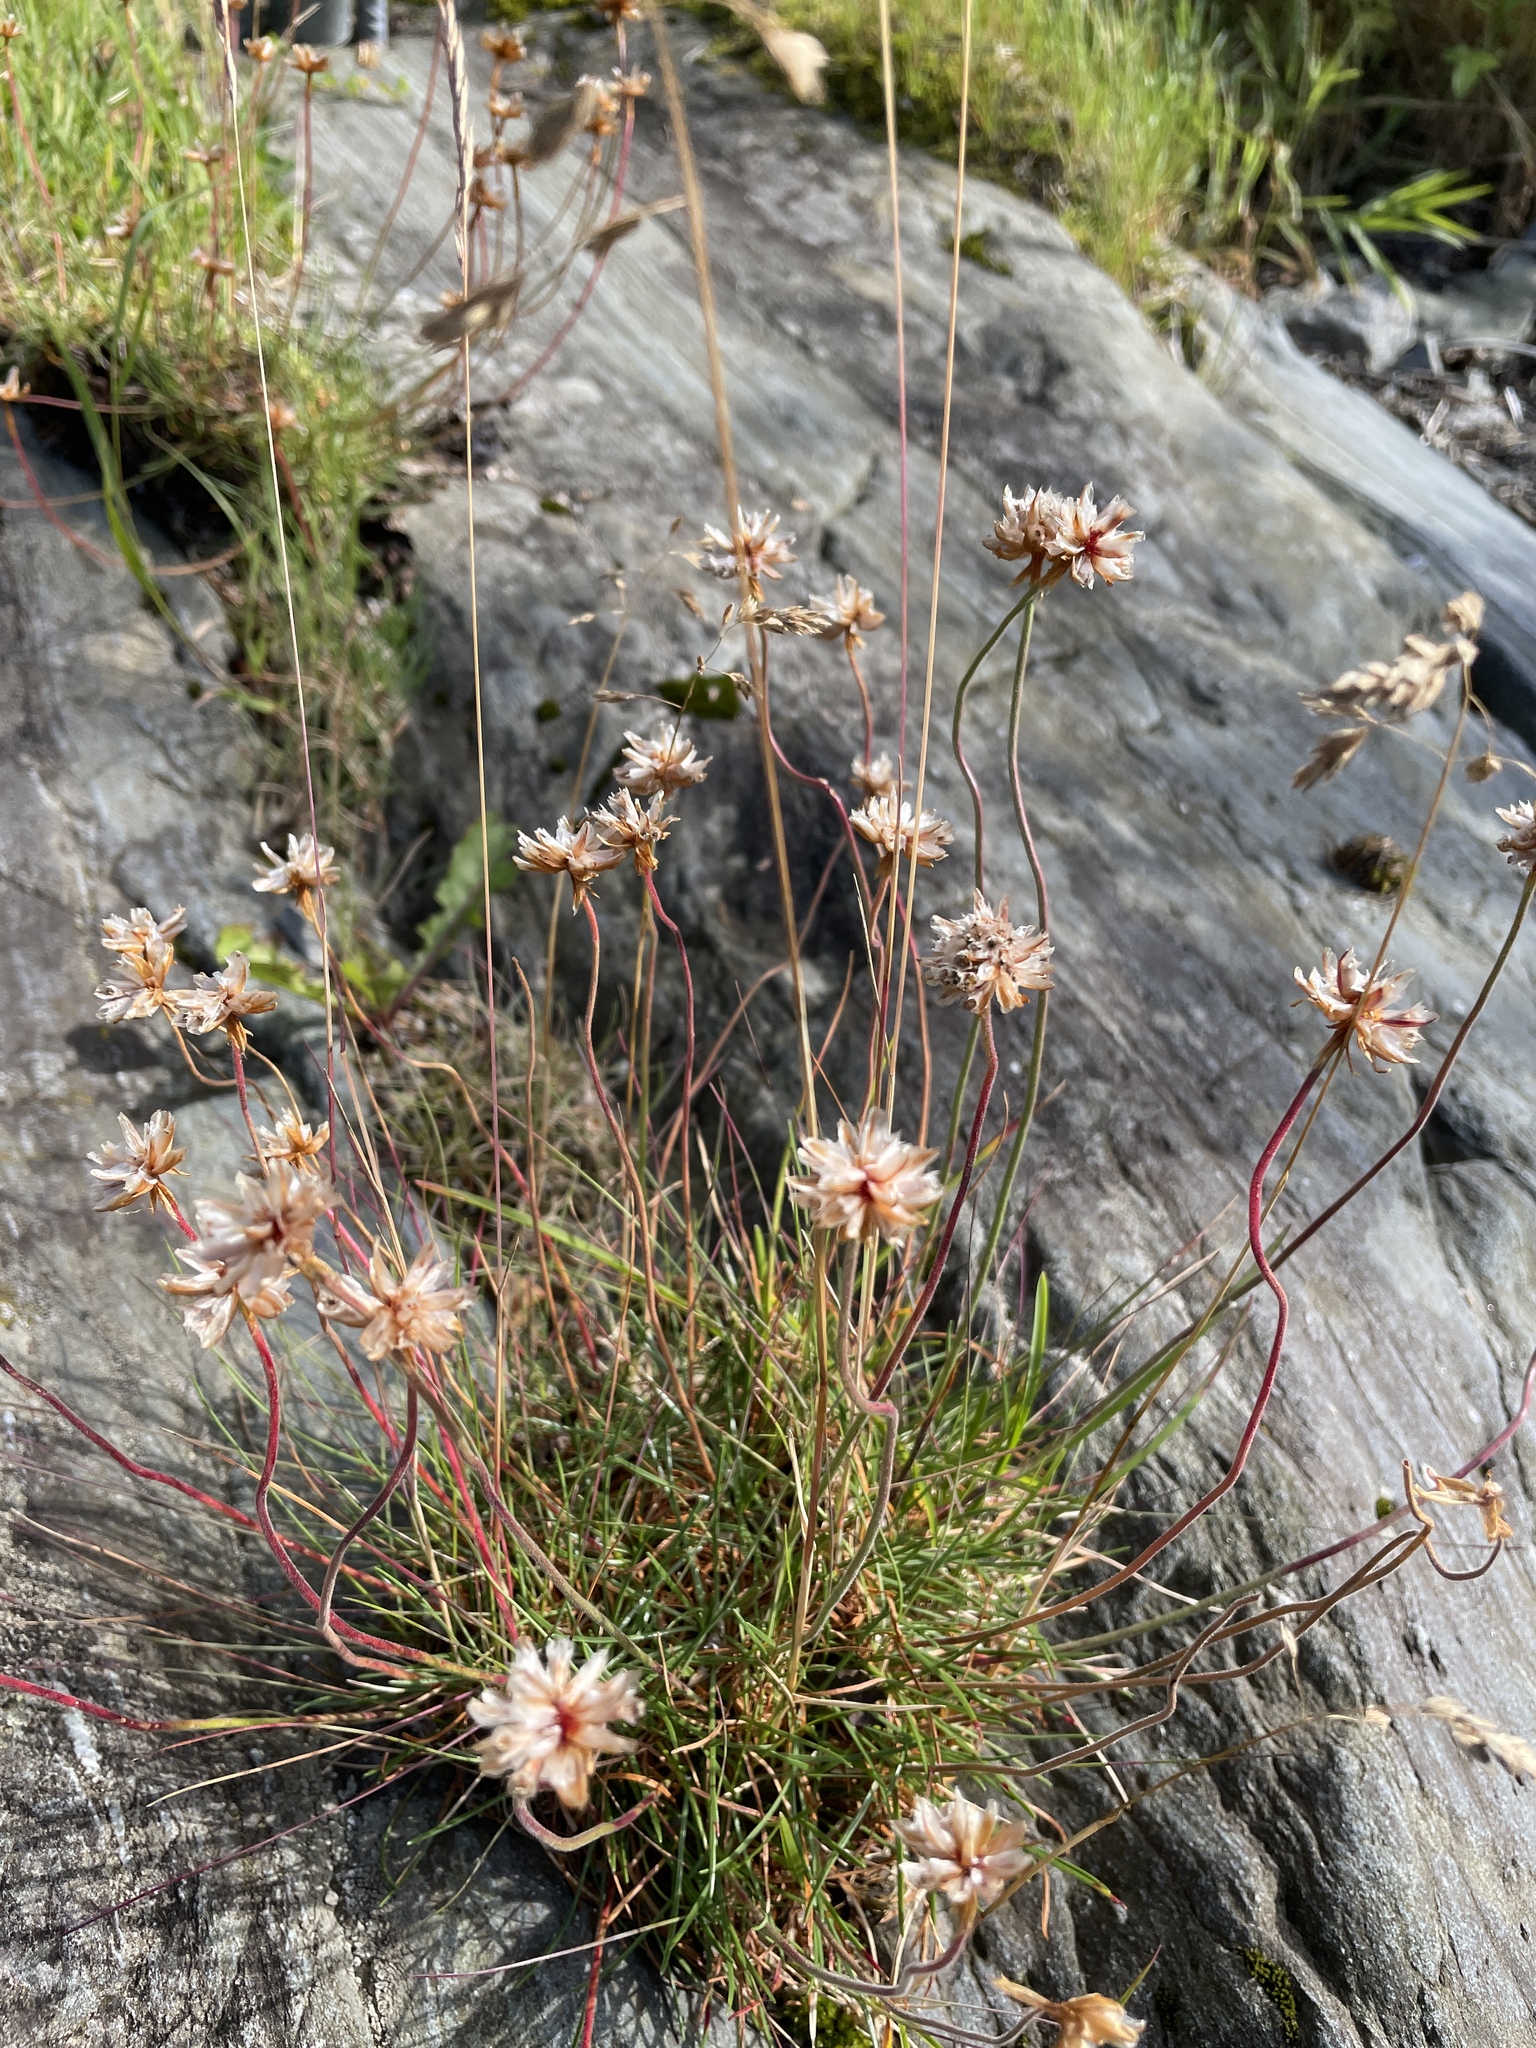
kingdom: Plantae
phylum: Tracheophyta
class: Magnoliopsida
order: Caryophyllales
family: Plumbaginaceae
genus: Armeria
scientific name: Armeria maritima
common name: Thrift
